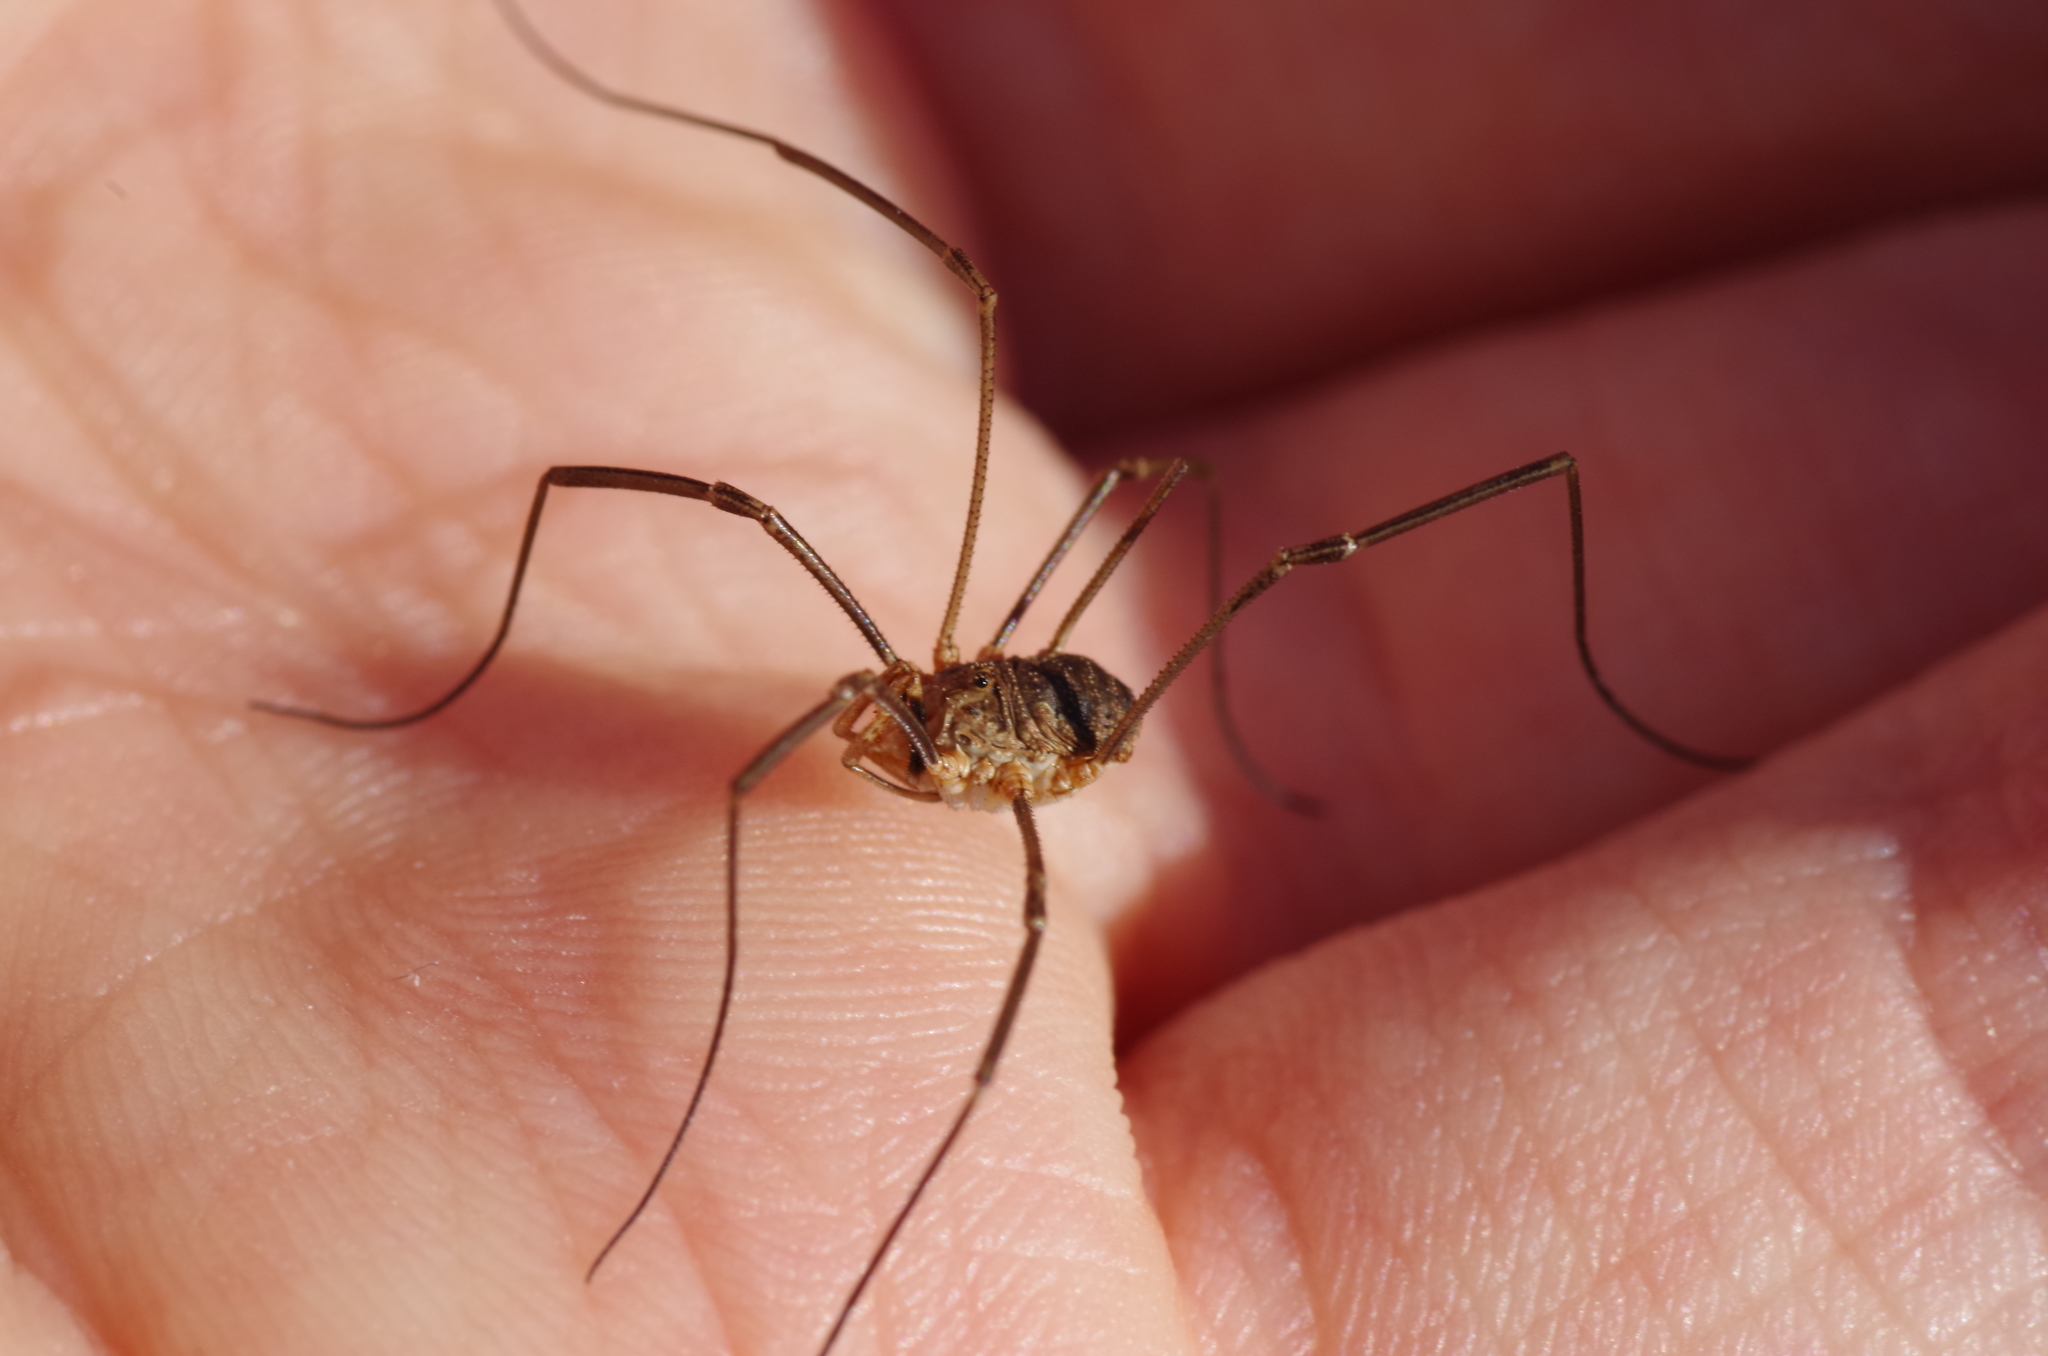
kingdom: Animalia
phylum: Arthropoda
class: Arachnida
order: Opiliones
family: Phalangiidae
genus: Phalangium
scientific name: Phalangium opilio
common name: Daddy longleg
